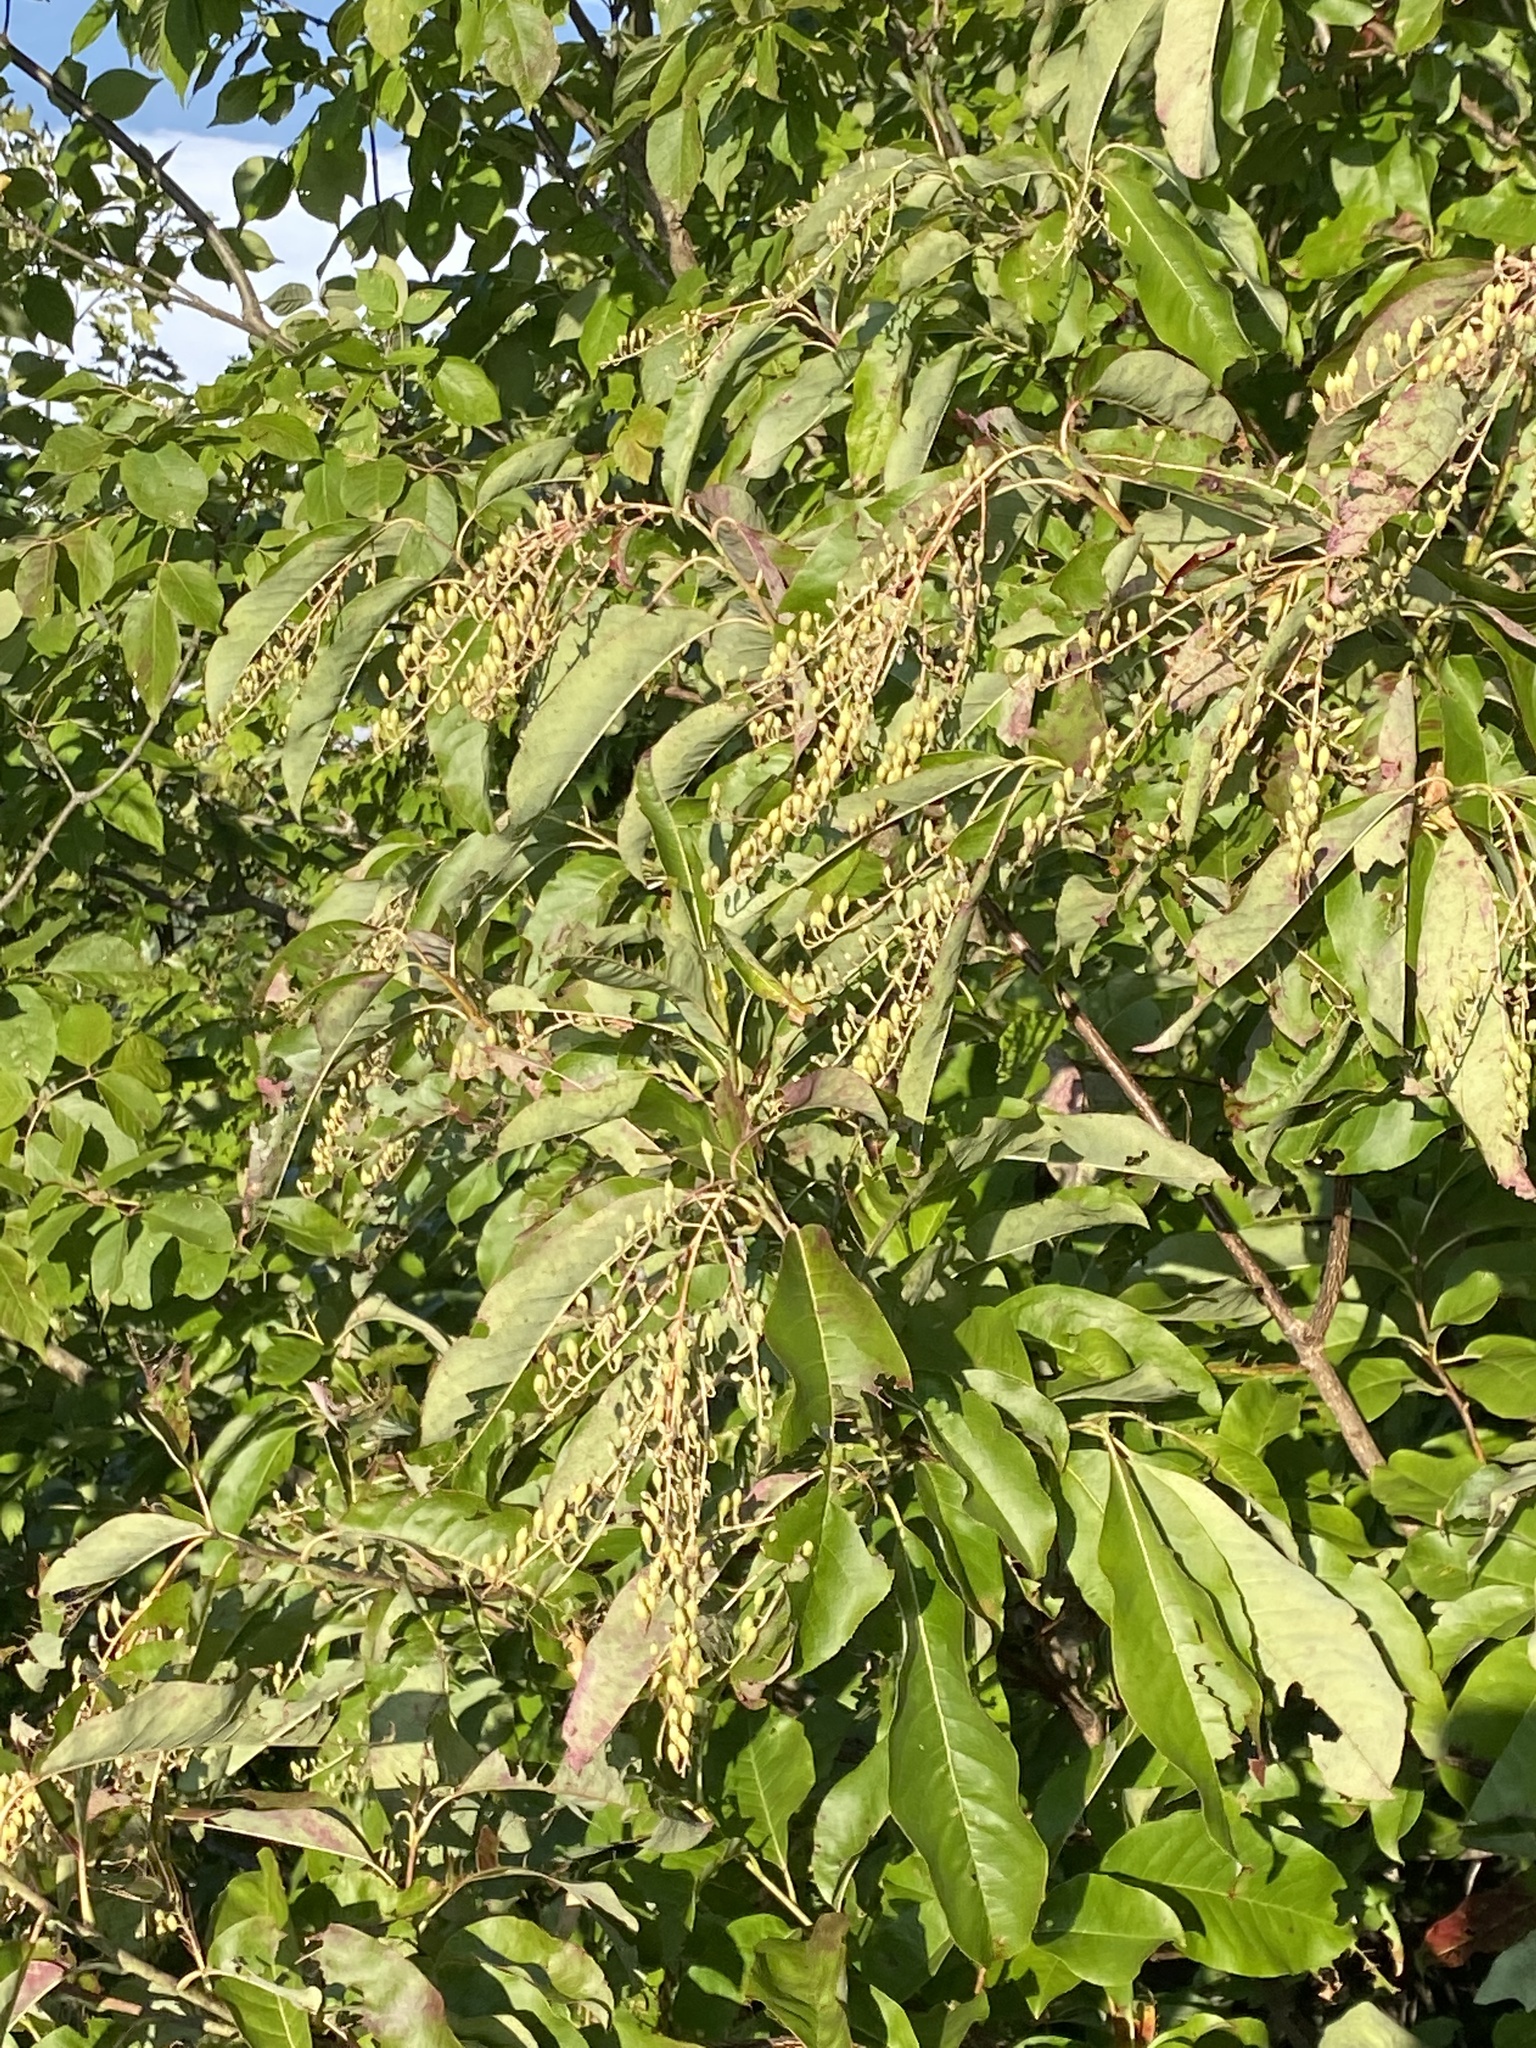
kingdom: Plantae
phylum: Tracheophyta
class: Magnoliopsida
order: Ericales
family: Ericaceae
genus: Oxydendrum
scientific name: Oxydendrum arboreum
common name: Sourwood
